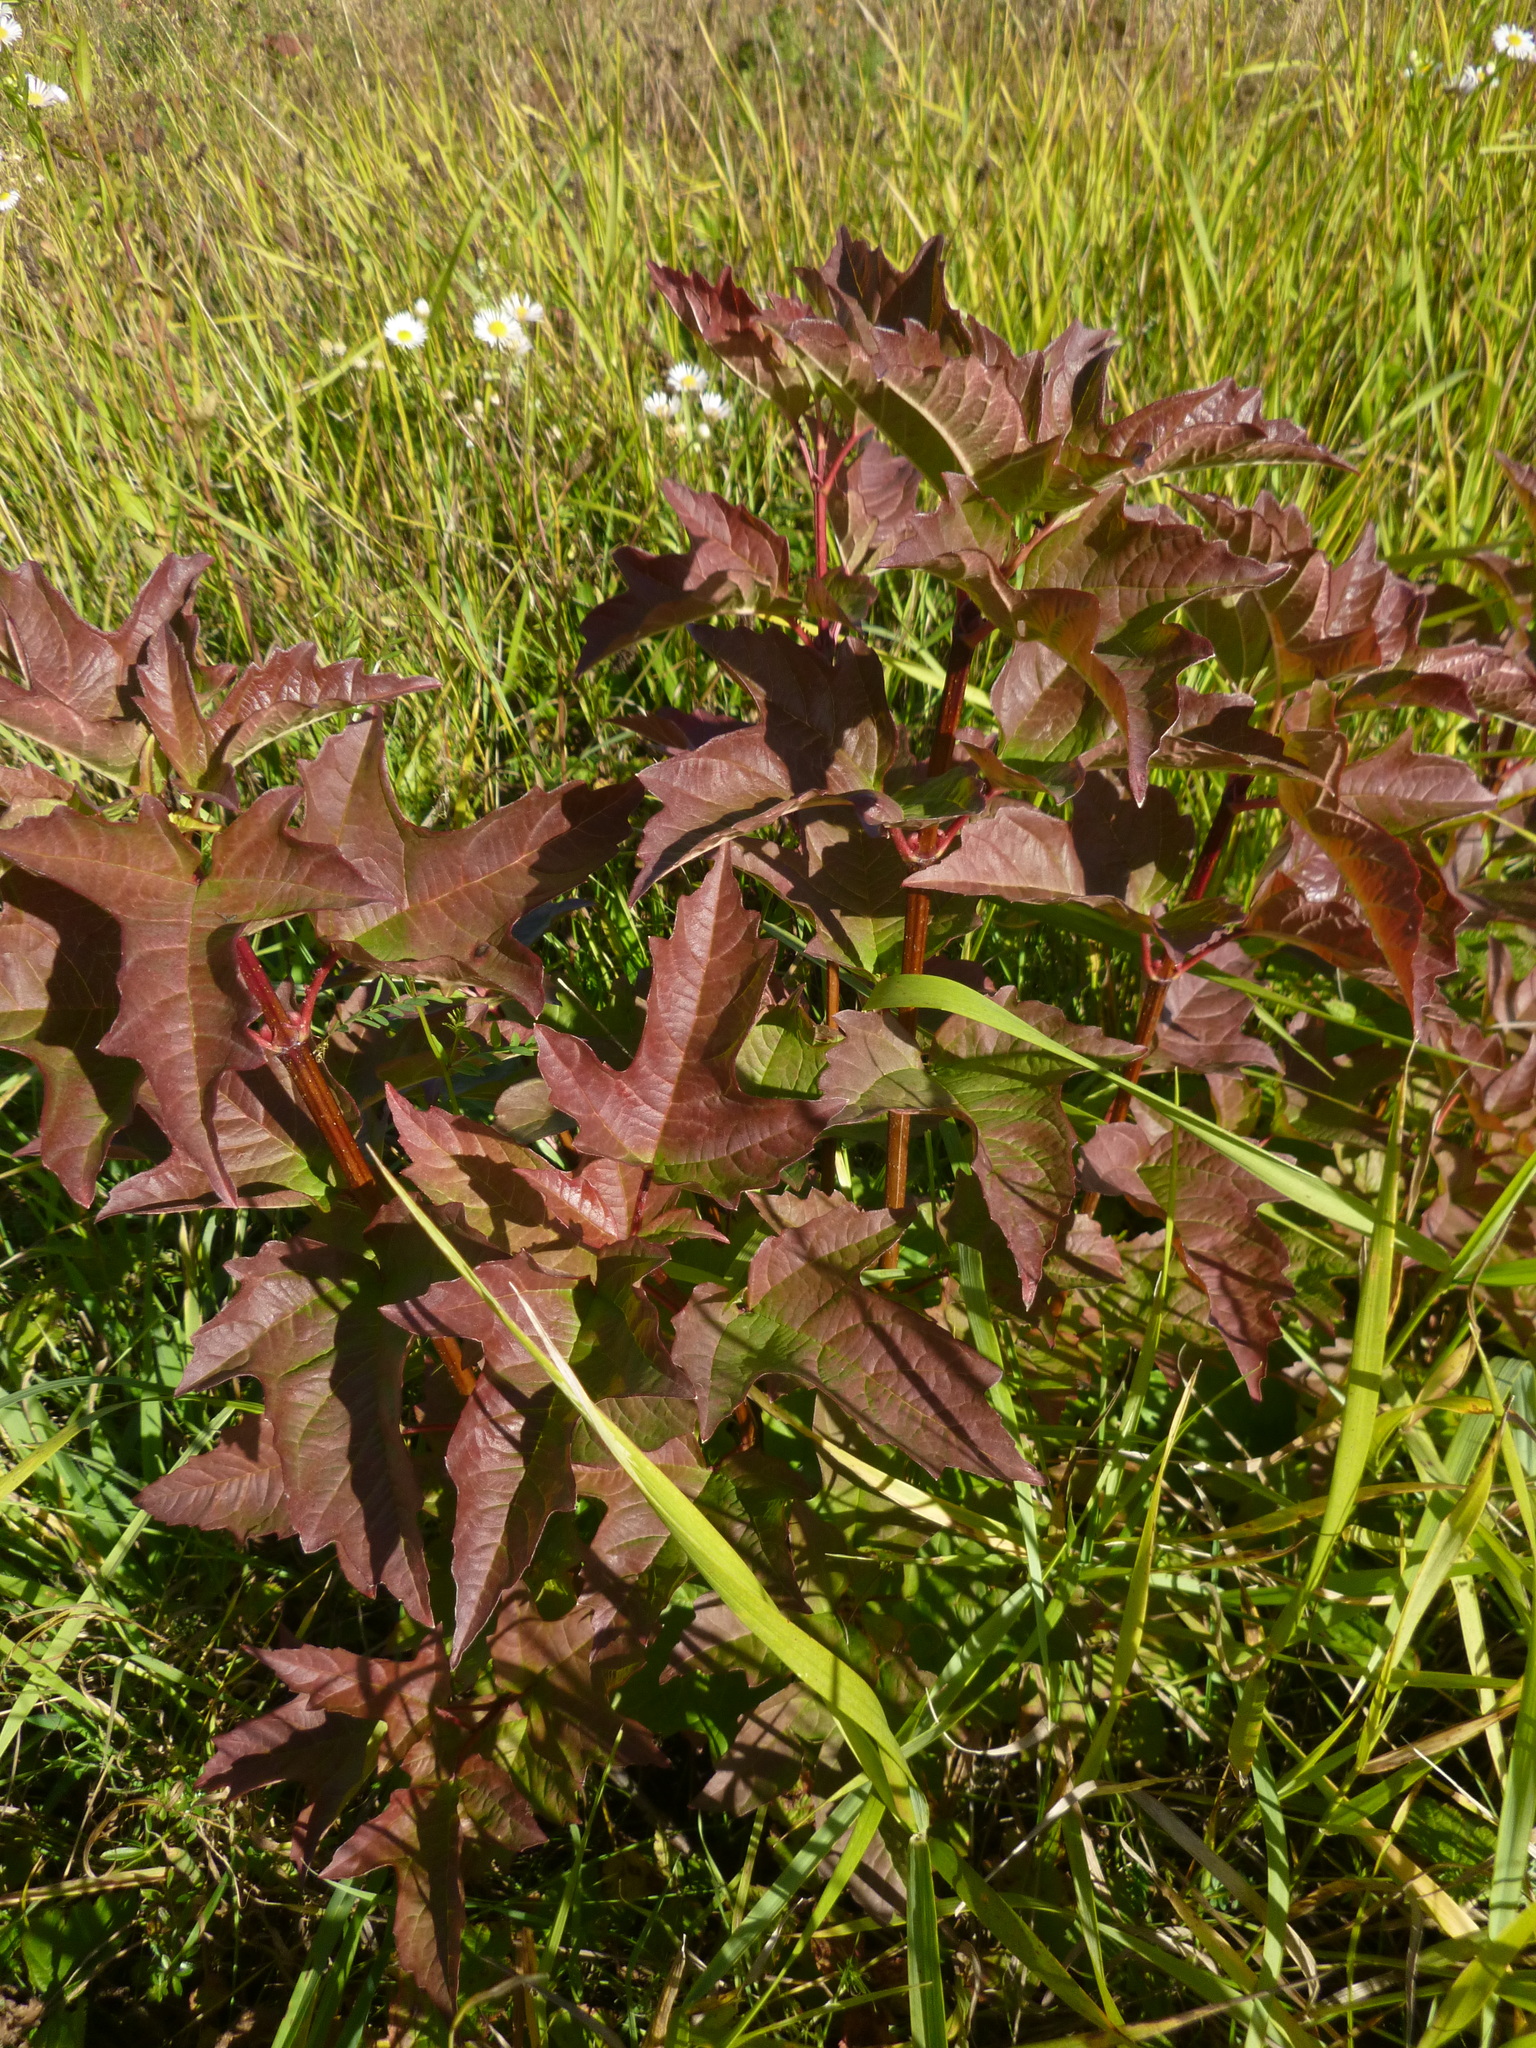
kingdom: Plantae
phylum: Tracheophyta
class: Magnoliopsida
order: Dipsacales
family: Viburnaceae
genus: Viburnum
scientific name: Viburnum opulus
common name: Guelder-rose
